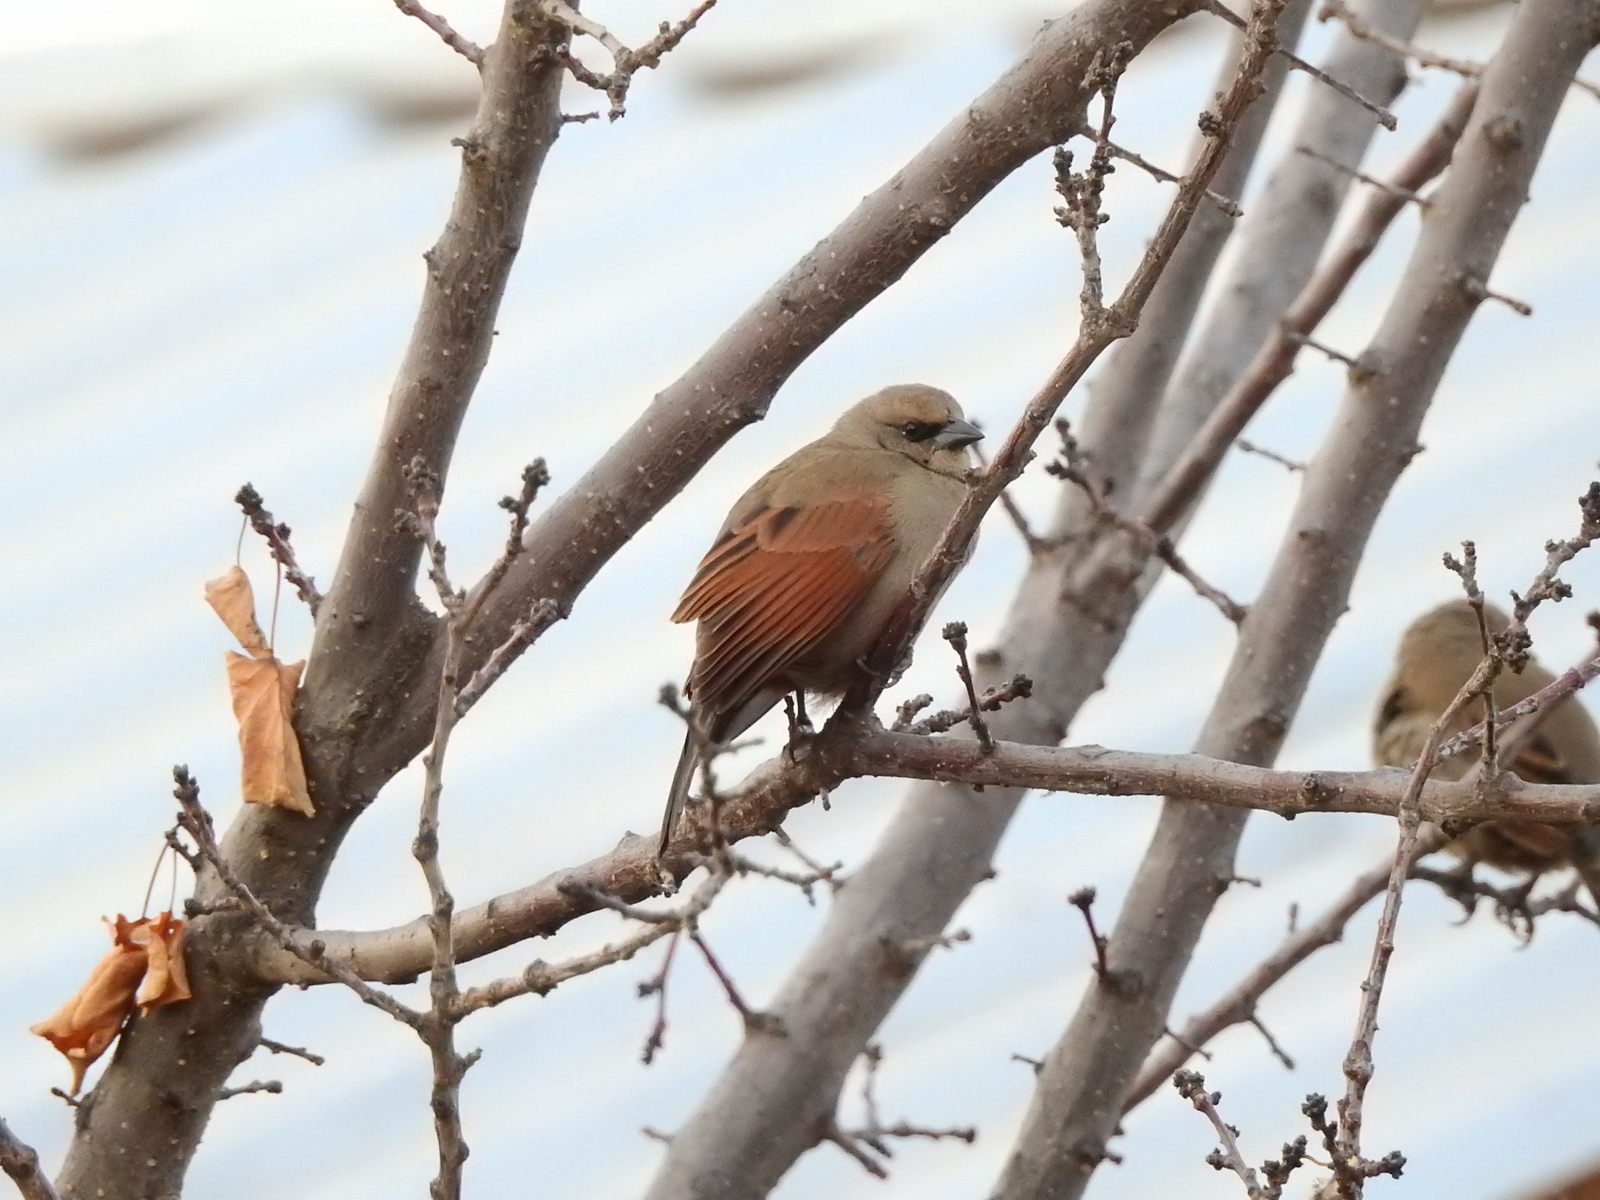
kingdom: Animalia
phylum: Chordata
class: Aves
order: Passeriformes
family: Icteridae
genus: Agelaioides
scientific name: Agelaioides badius
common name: Baywing
